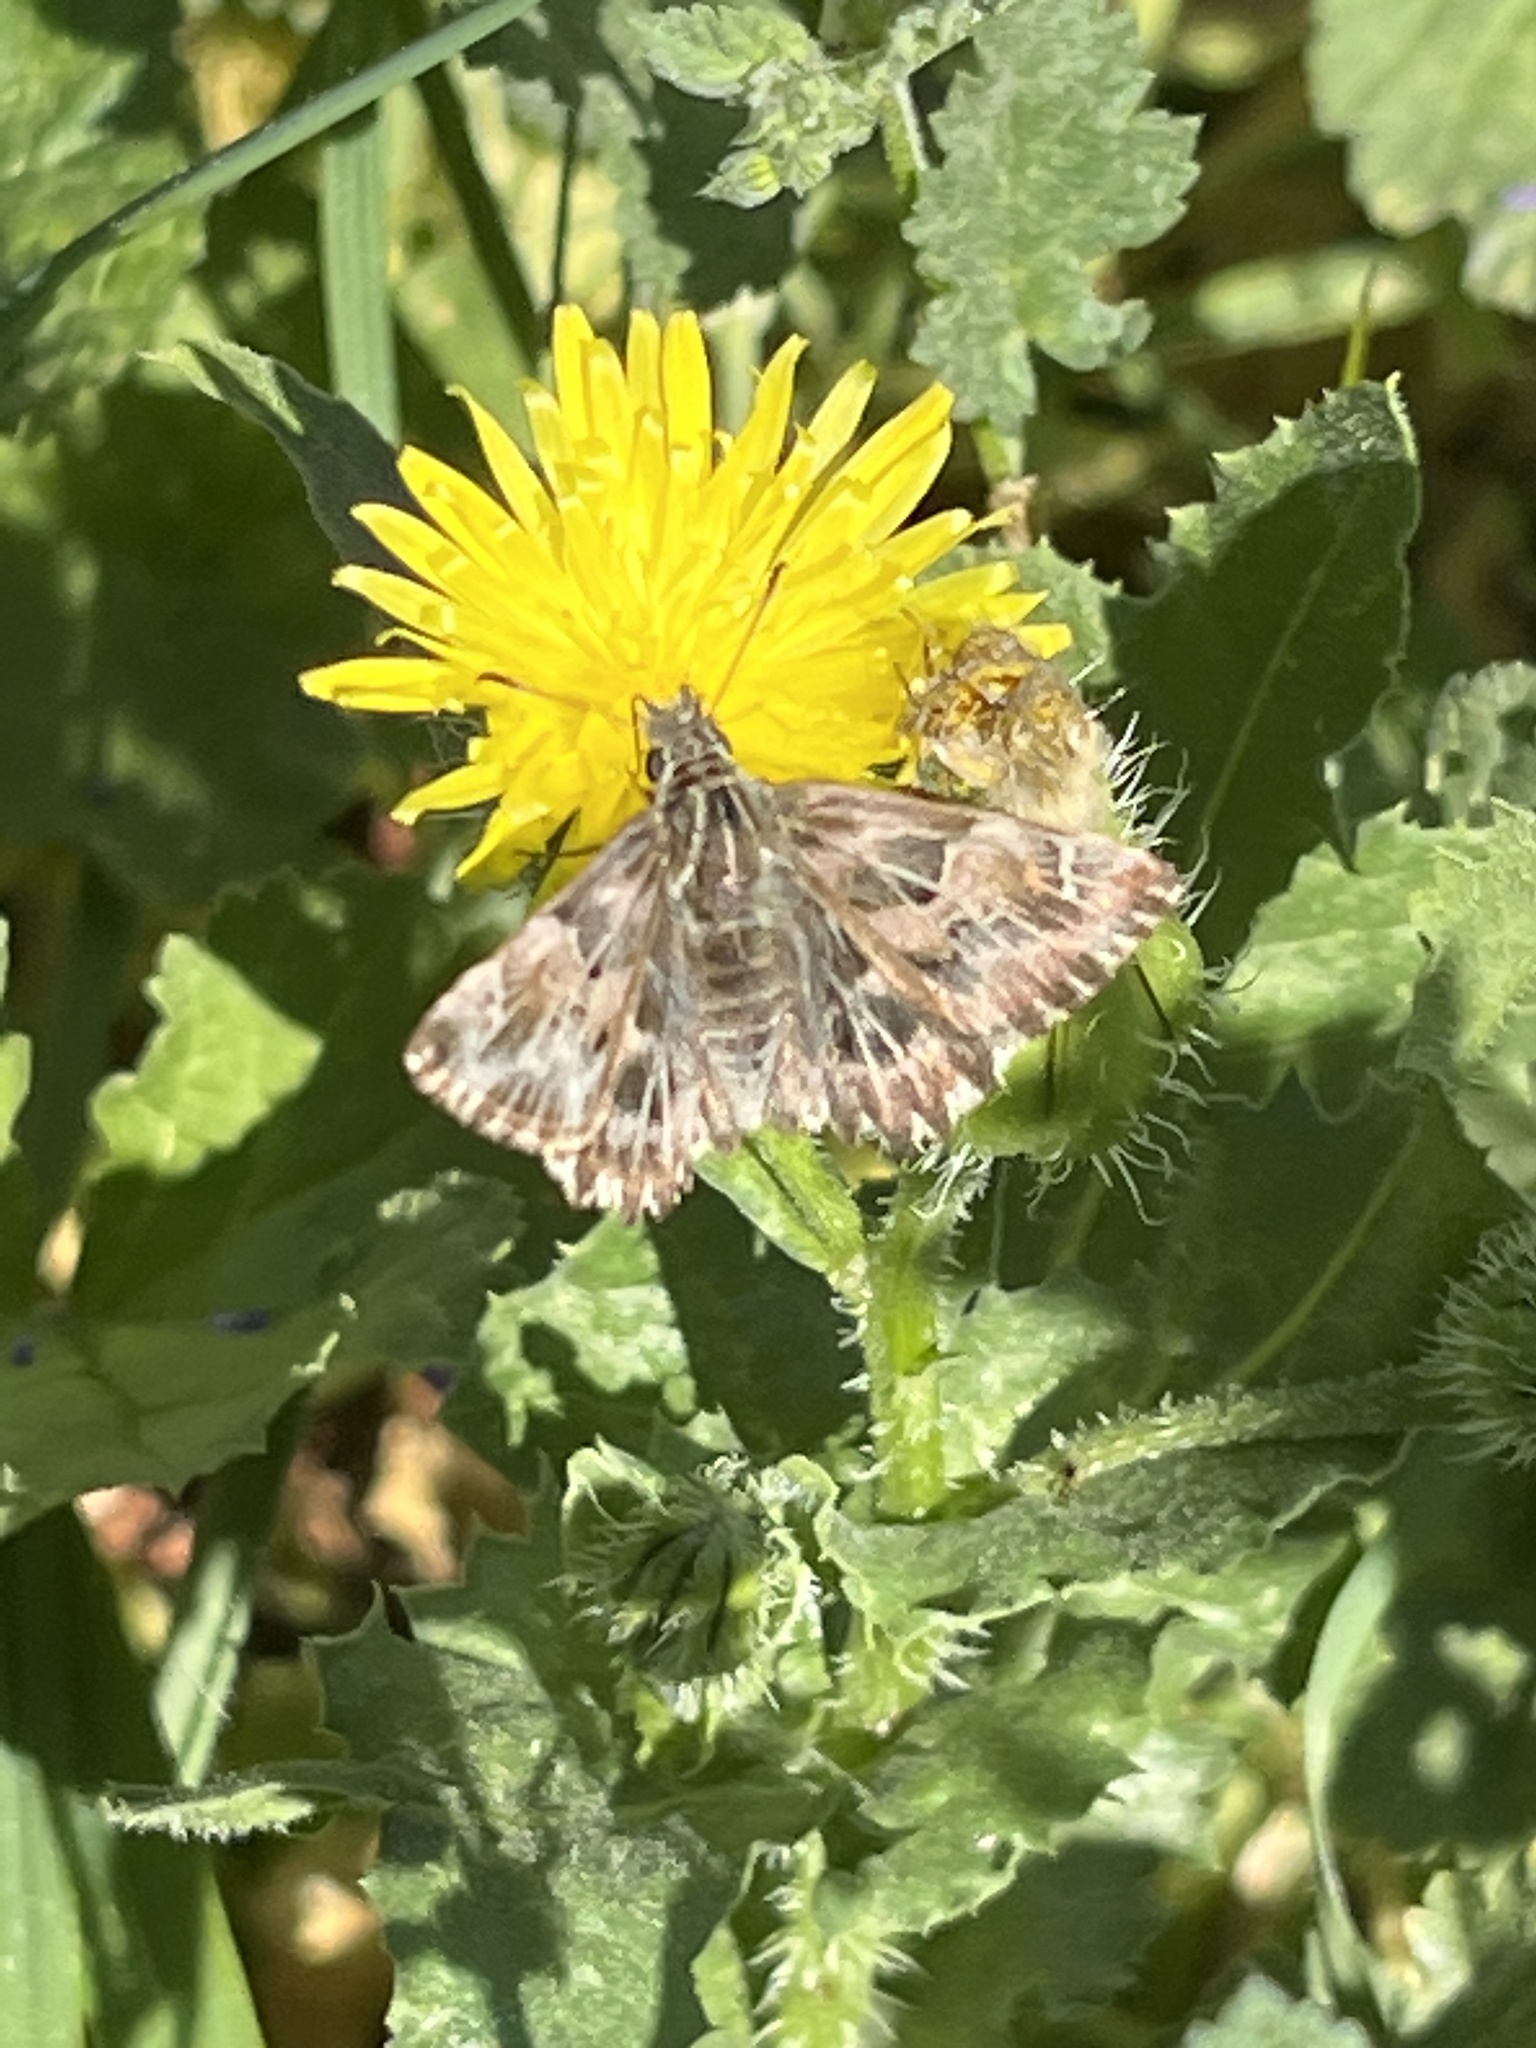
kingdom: Animalia
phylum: Arthropoda
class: Insecta
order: Lepidoptera
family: Hesperiidae
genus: Carcharodus
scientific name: Carcharodus alceae
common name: Mallow skipper
